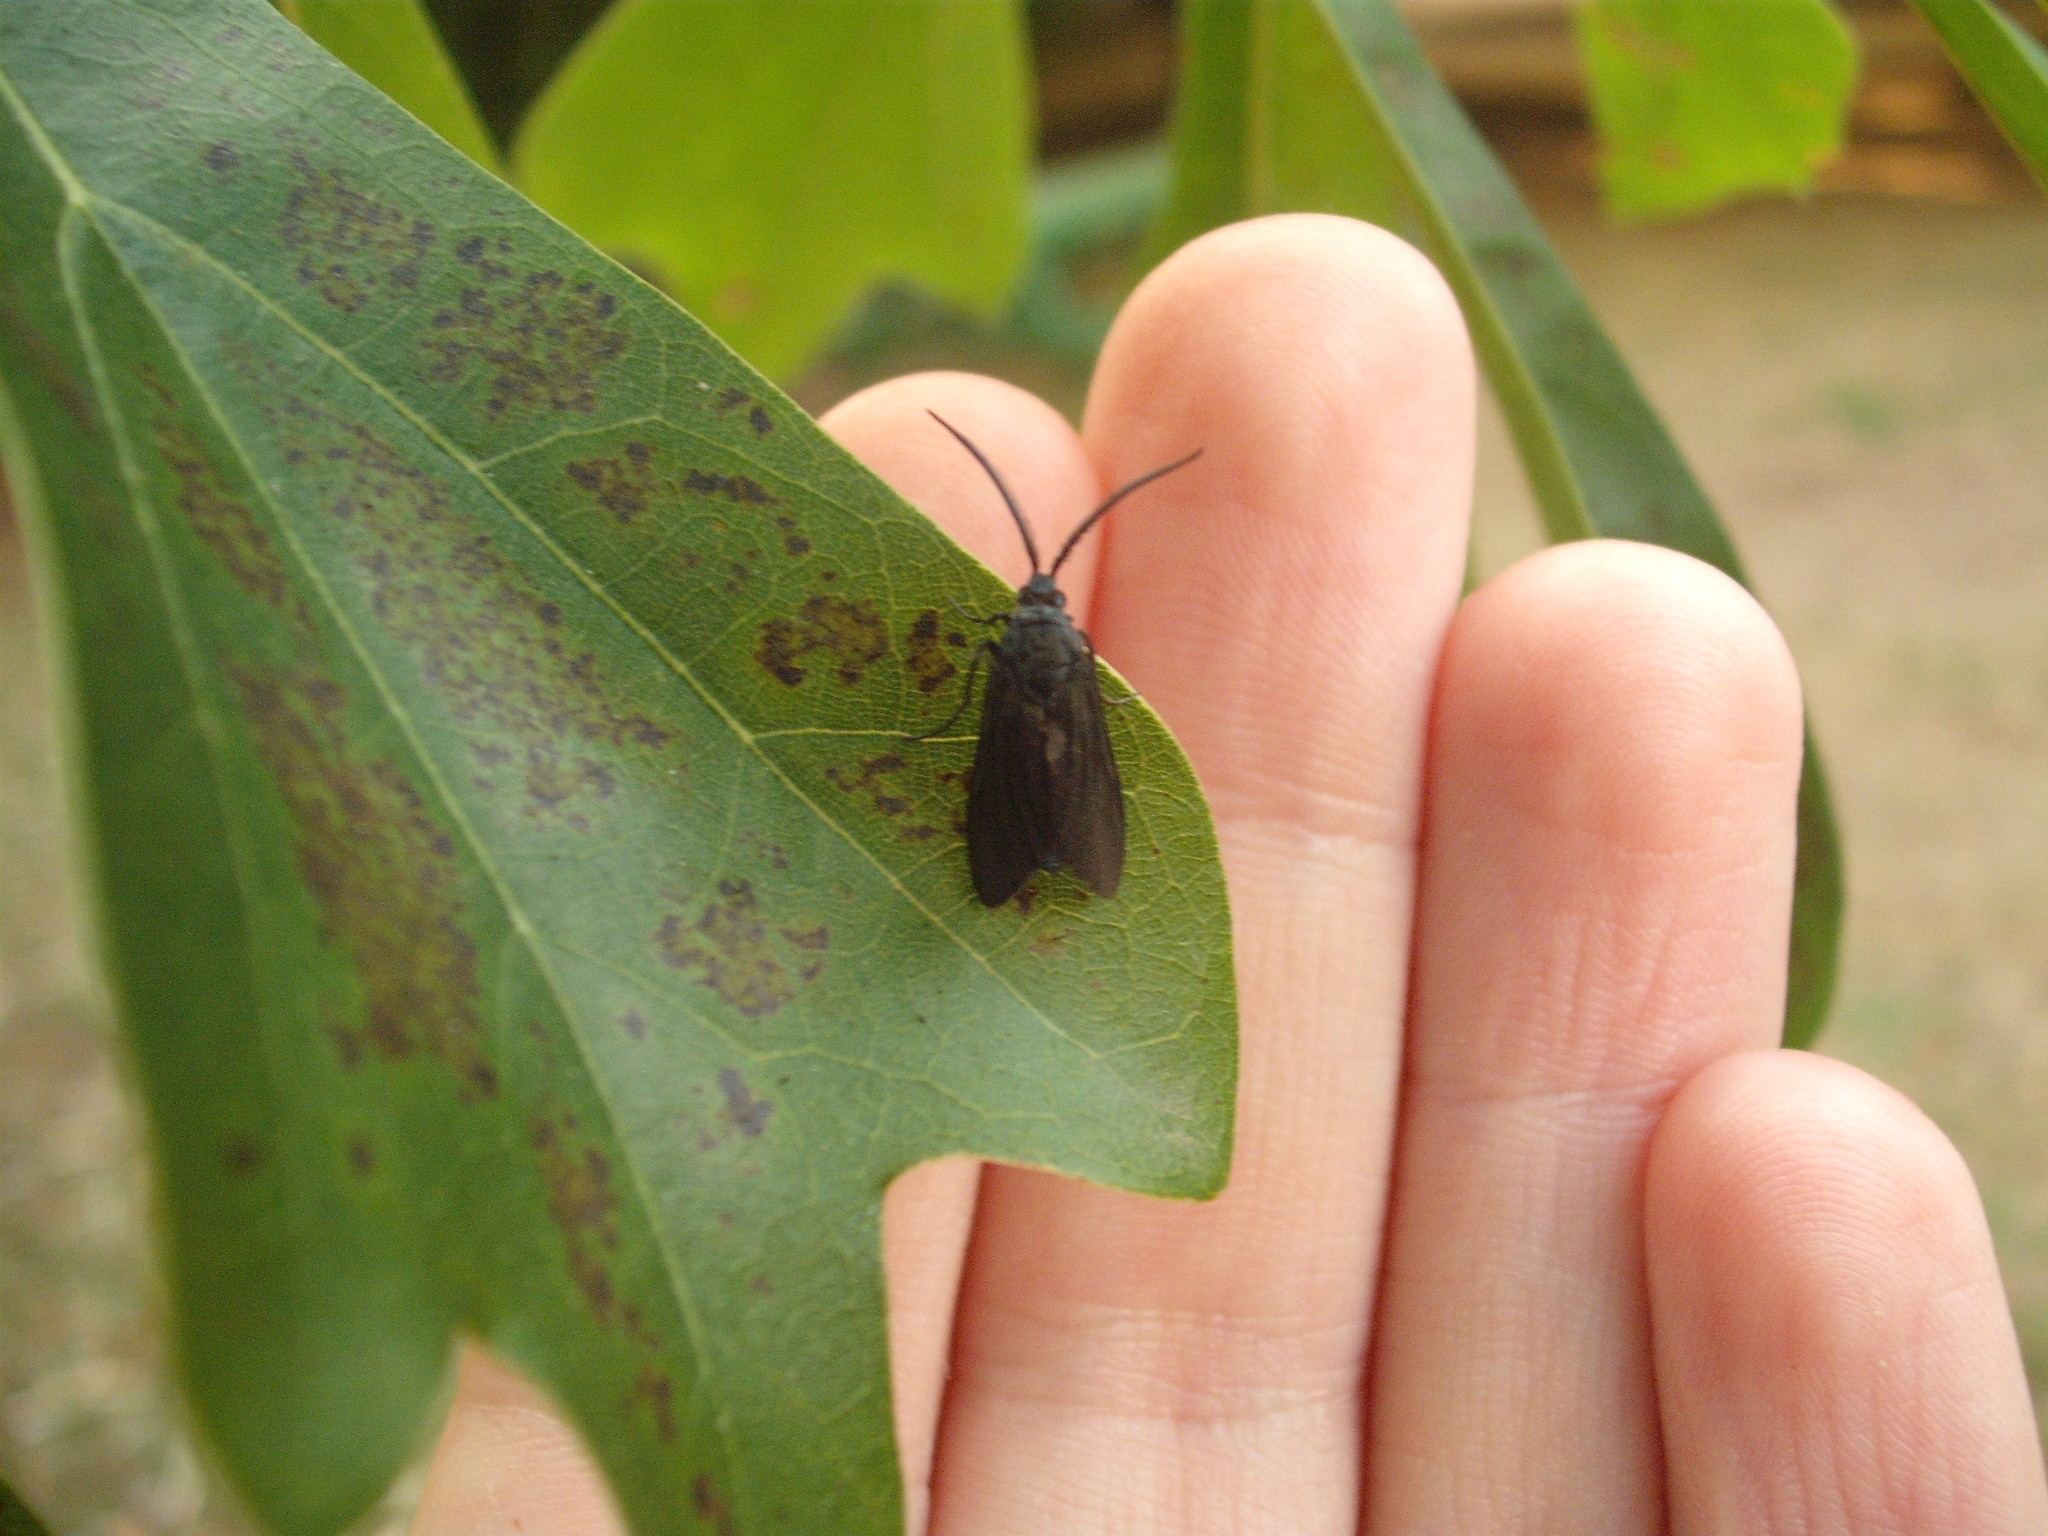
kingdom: Animalia
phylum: Arthropoda
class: Insecta
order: Lepidoptera
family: Zygaenidae
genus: Artona
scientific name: Artona martini
